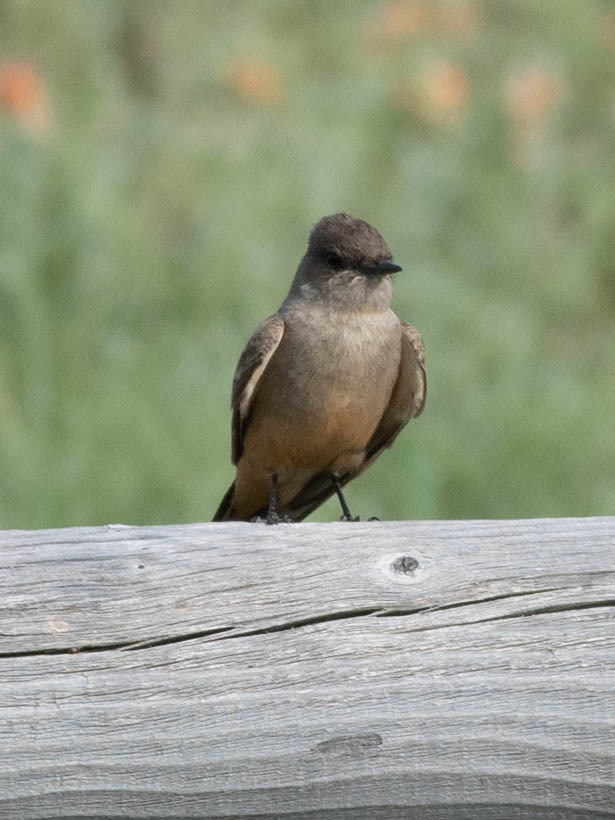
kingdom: Animalia
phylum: Chordata
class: Aves
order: Passeriformes
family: Tyrannidae
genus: Sayornis
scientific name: Sayornis saya
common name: Say's phoebe
